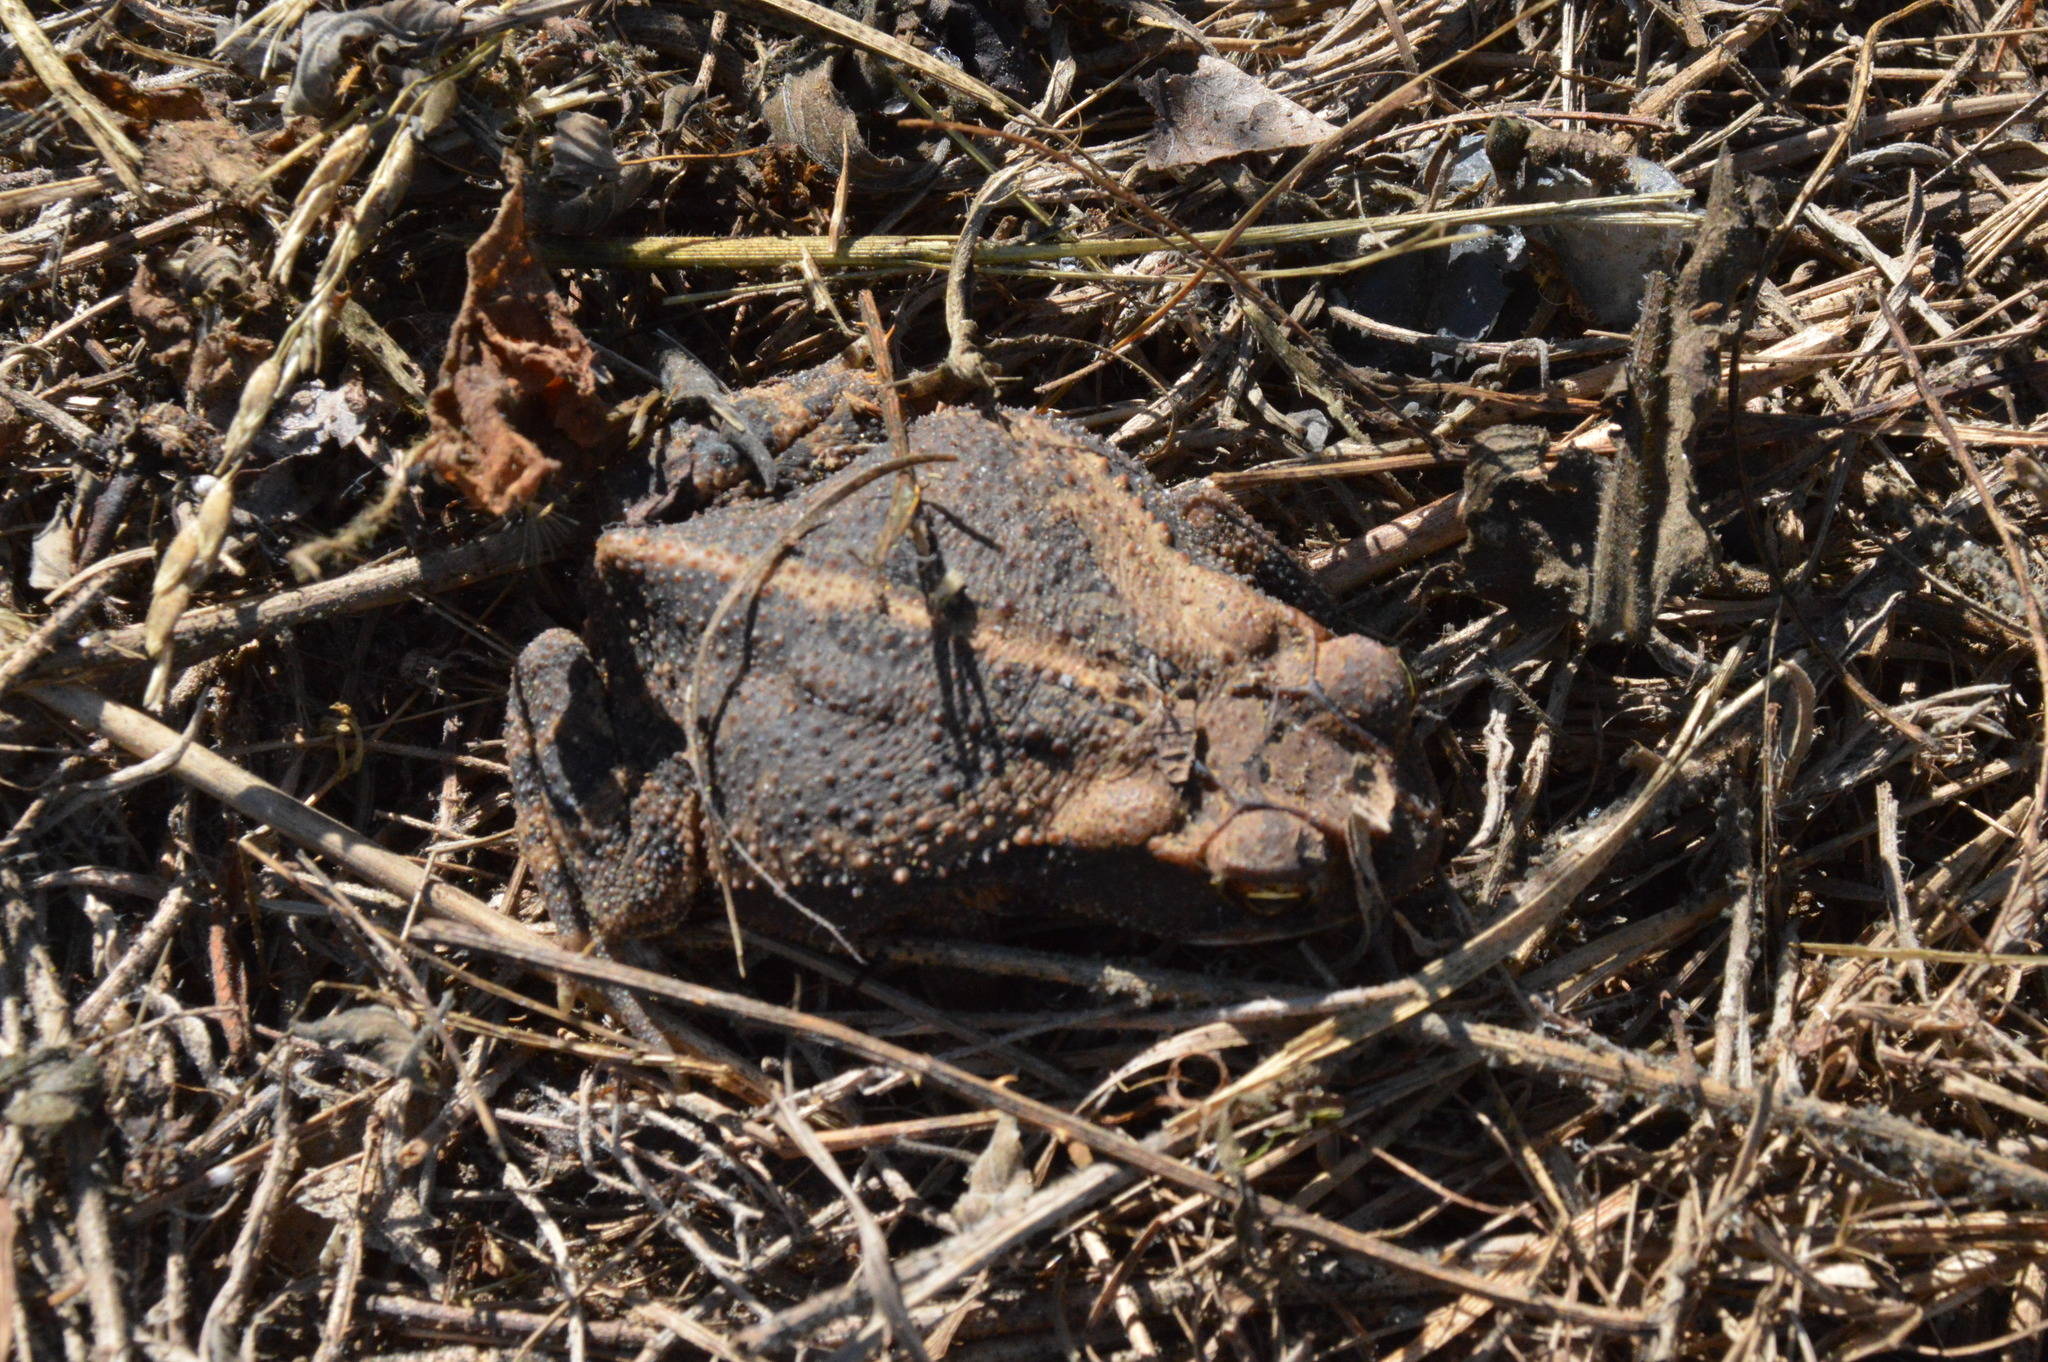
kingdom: Animalia
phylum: Chordata
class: Amphibia
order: Anura
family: Bufonidae
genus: Incilius
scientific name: Incilius nebulifer
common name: Gulf coast toad
